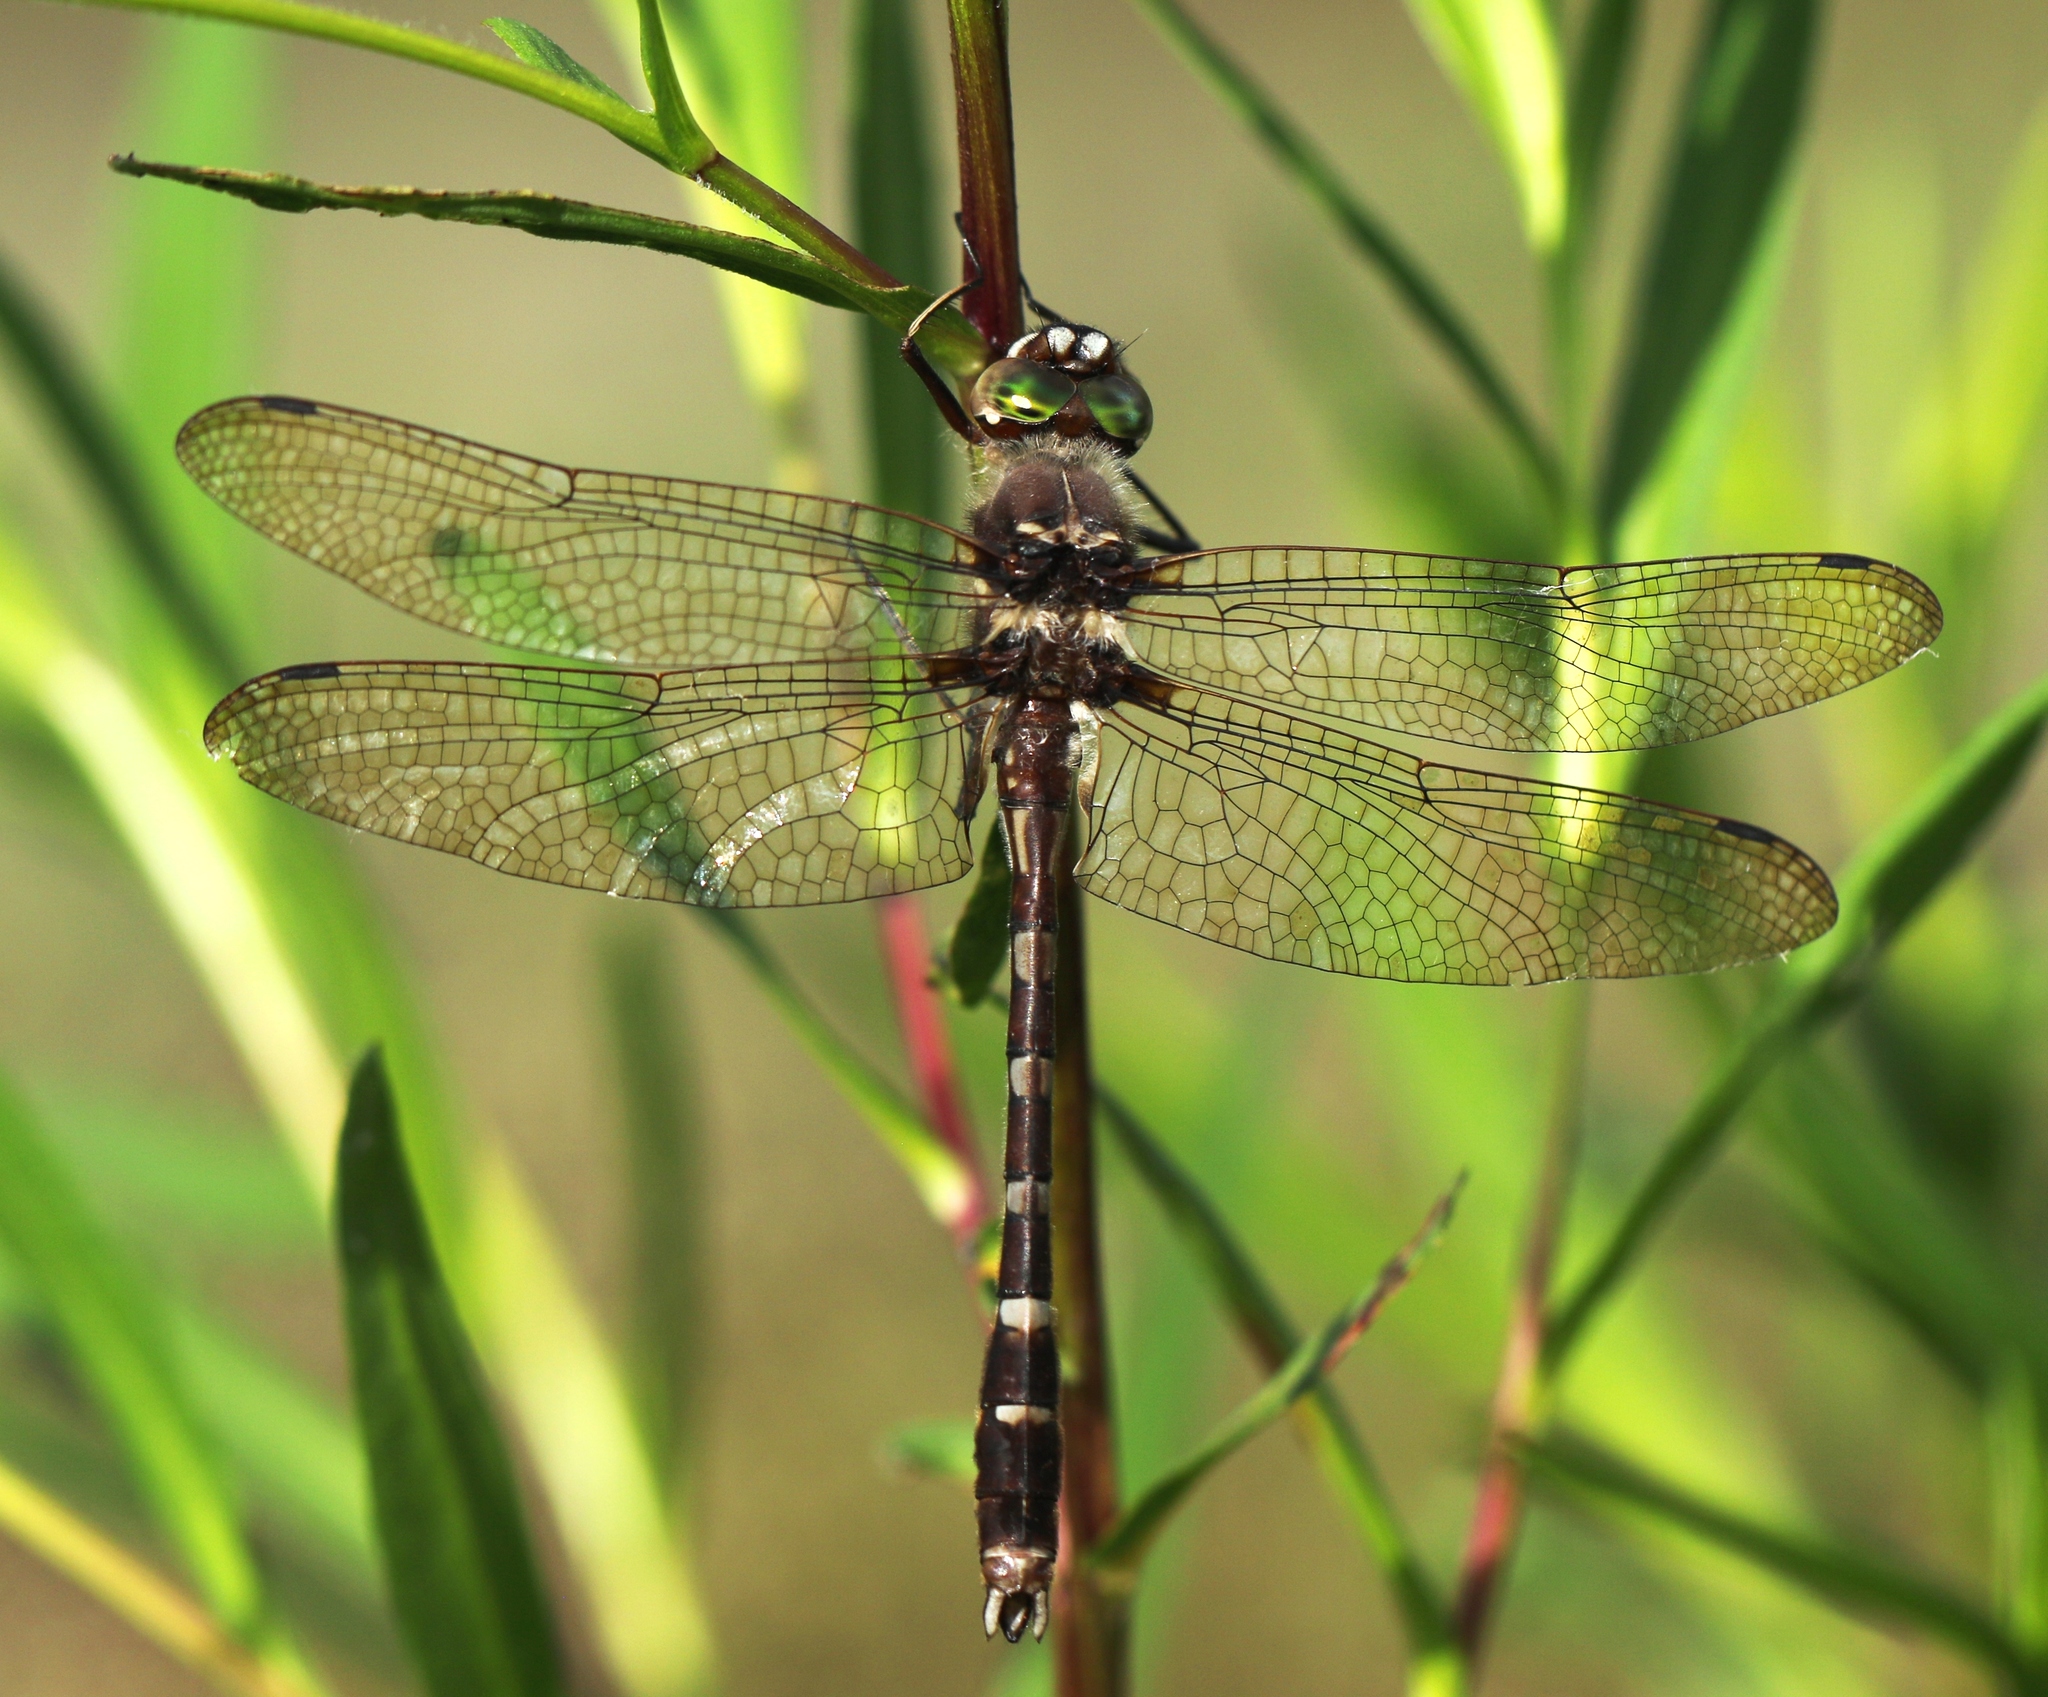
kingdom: Animalia
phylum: Arthropoda
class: Insecta
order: Odonata
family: Macromiidae
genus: Didymops
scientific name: Didymops transversa
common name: Stream cruiser
